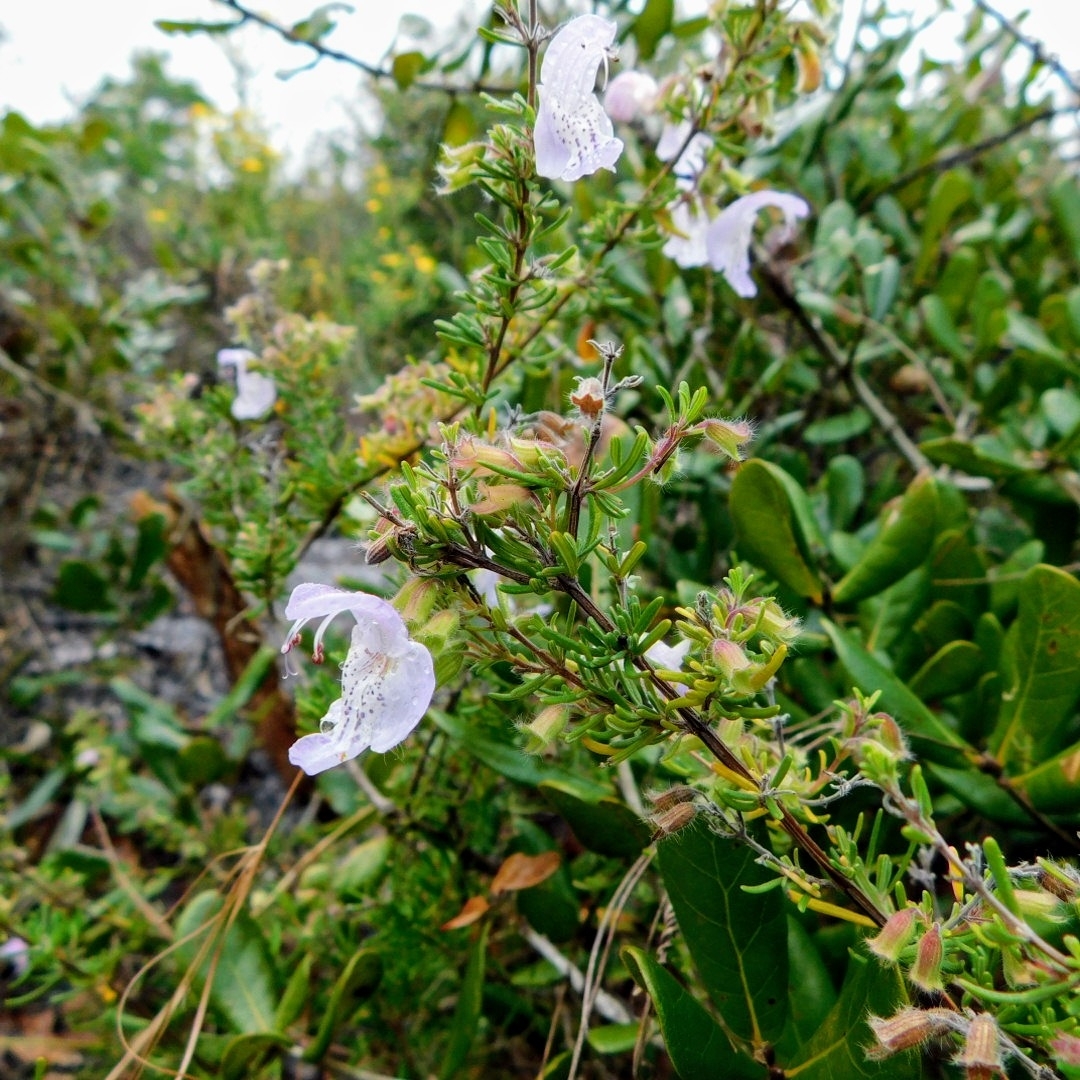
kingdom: Plantae
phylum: Tracheophyta
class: Magnoliopsida
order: Lamiales
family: Lamiaceae
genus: Conradina
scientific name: Conradina grandiflora
